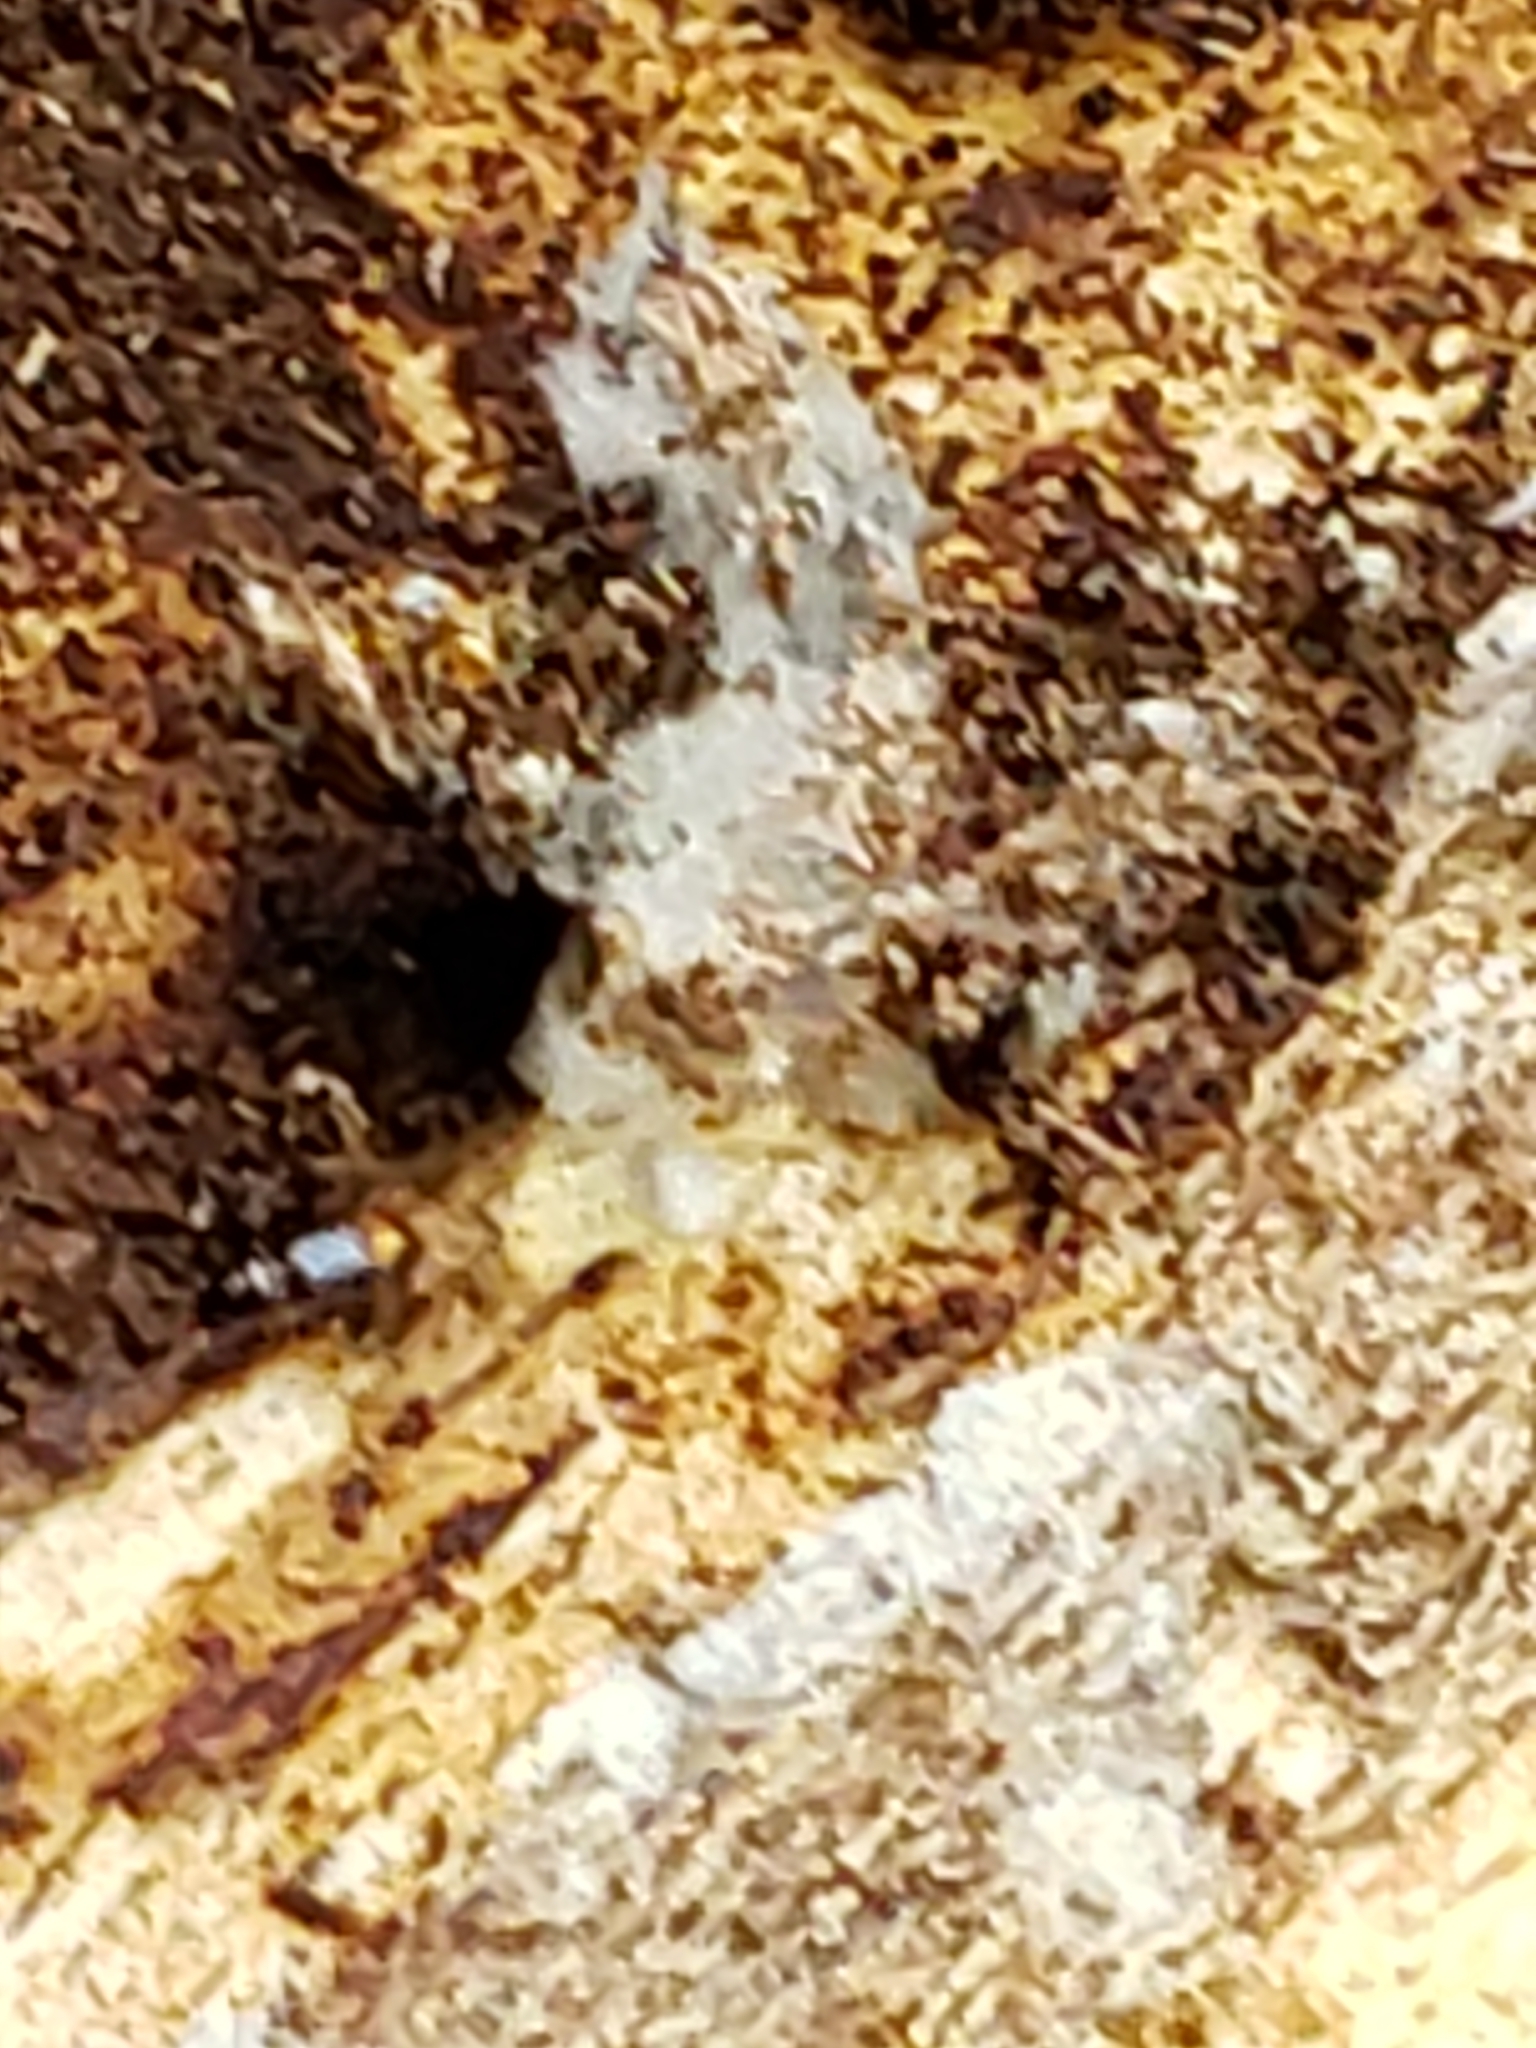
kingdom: Animalia
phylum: Arthropoda
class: Insecta
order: Coleoptera
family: Carabidae
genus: Mioptachys
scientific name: Mioptachys flavicauda
